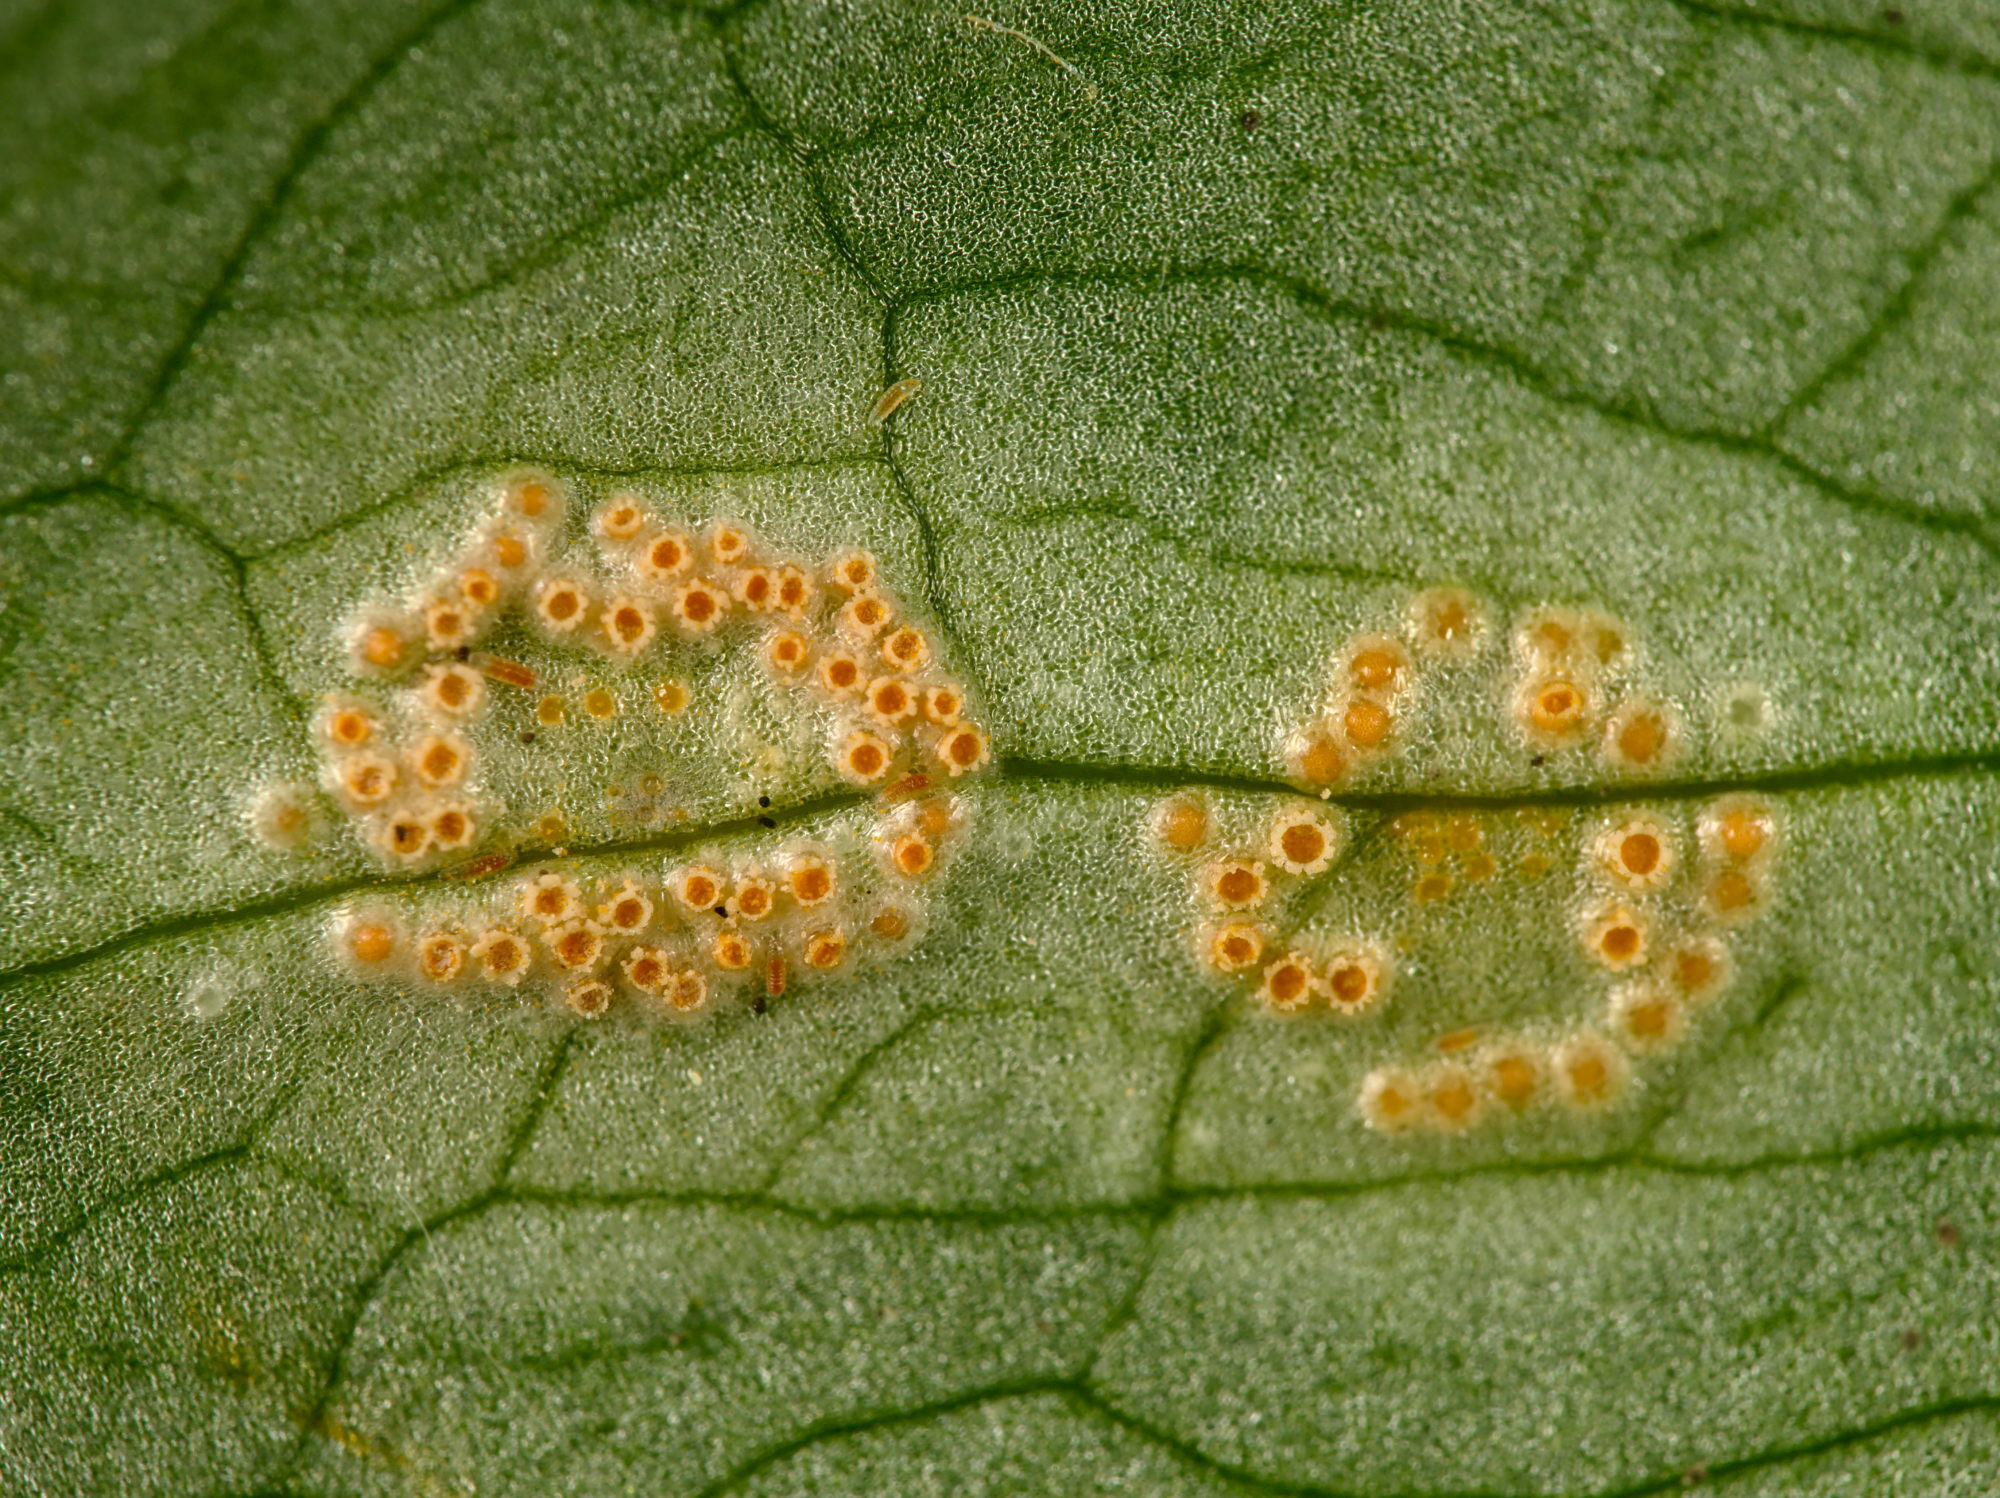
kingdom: Fungi
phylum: Basidiomycota
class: Pucciniomycetes
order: Pucciniales
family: Pucciniaceae
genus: Puccinia
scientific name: Puccinia sessilis
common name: Arum rust
